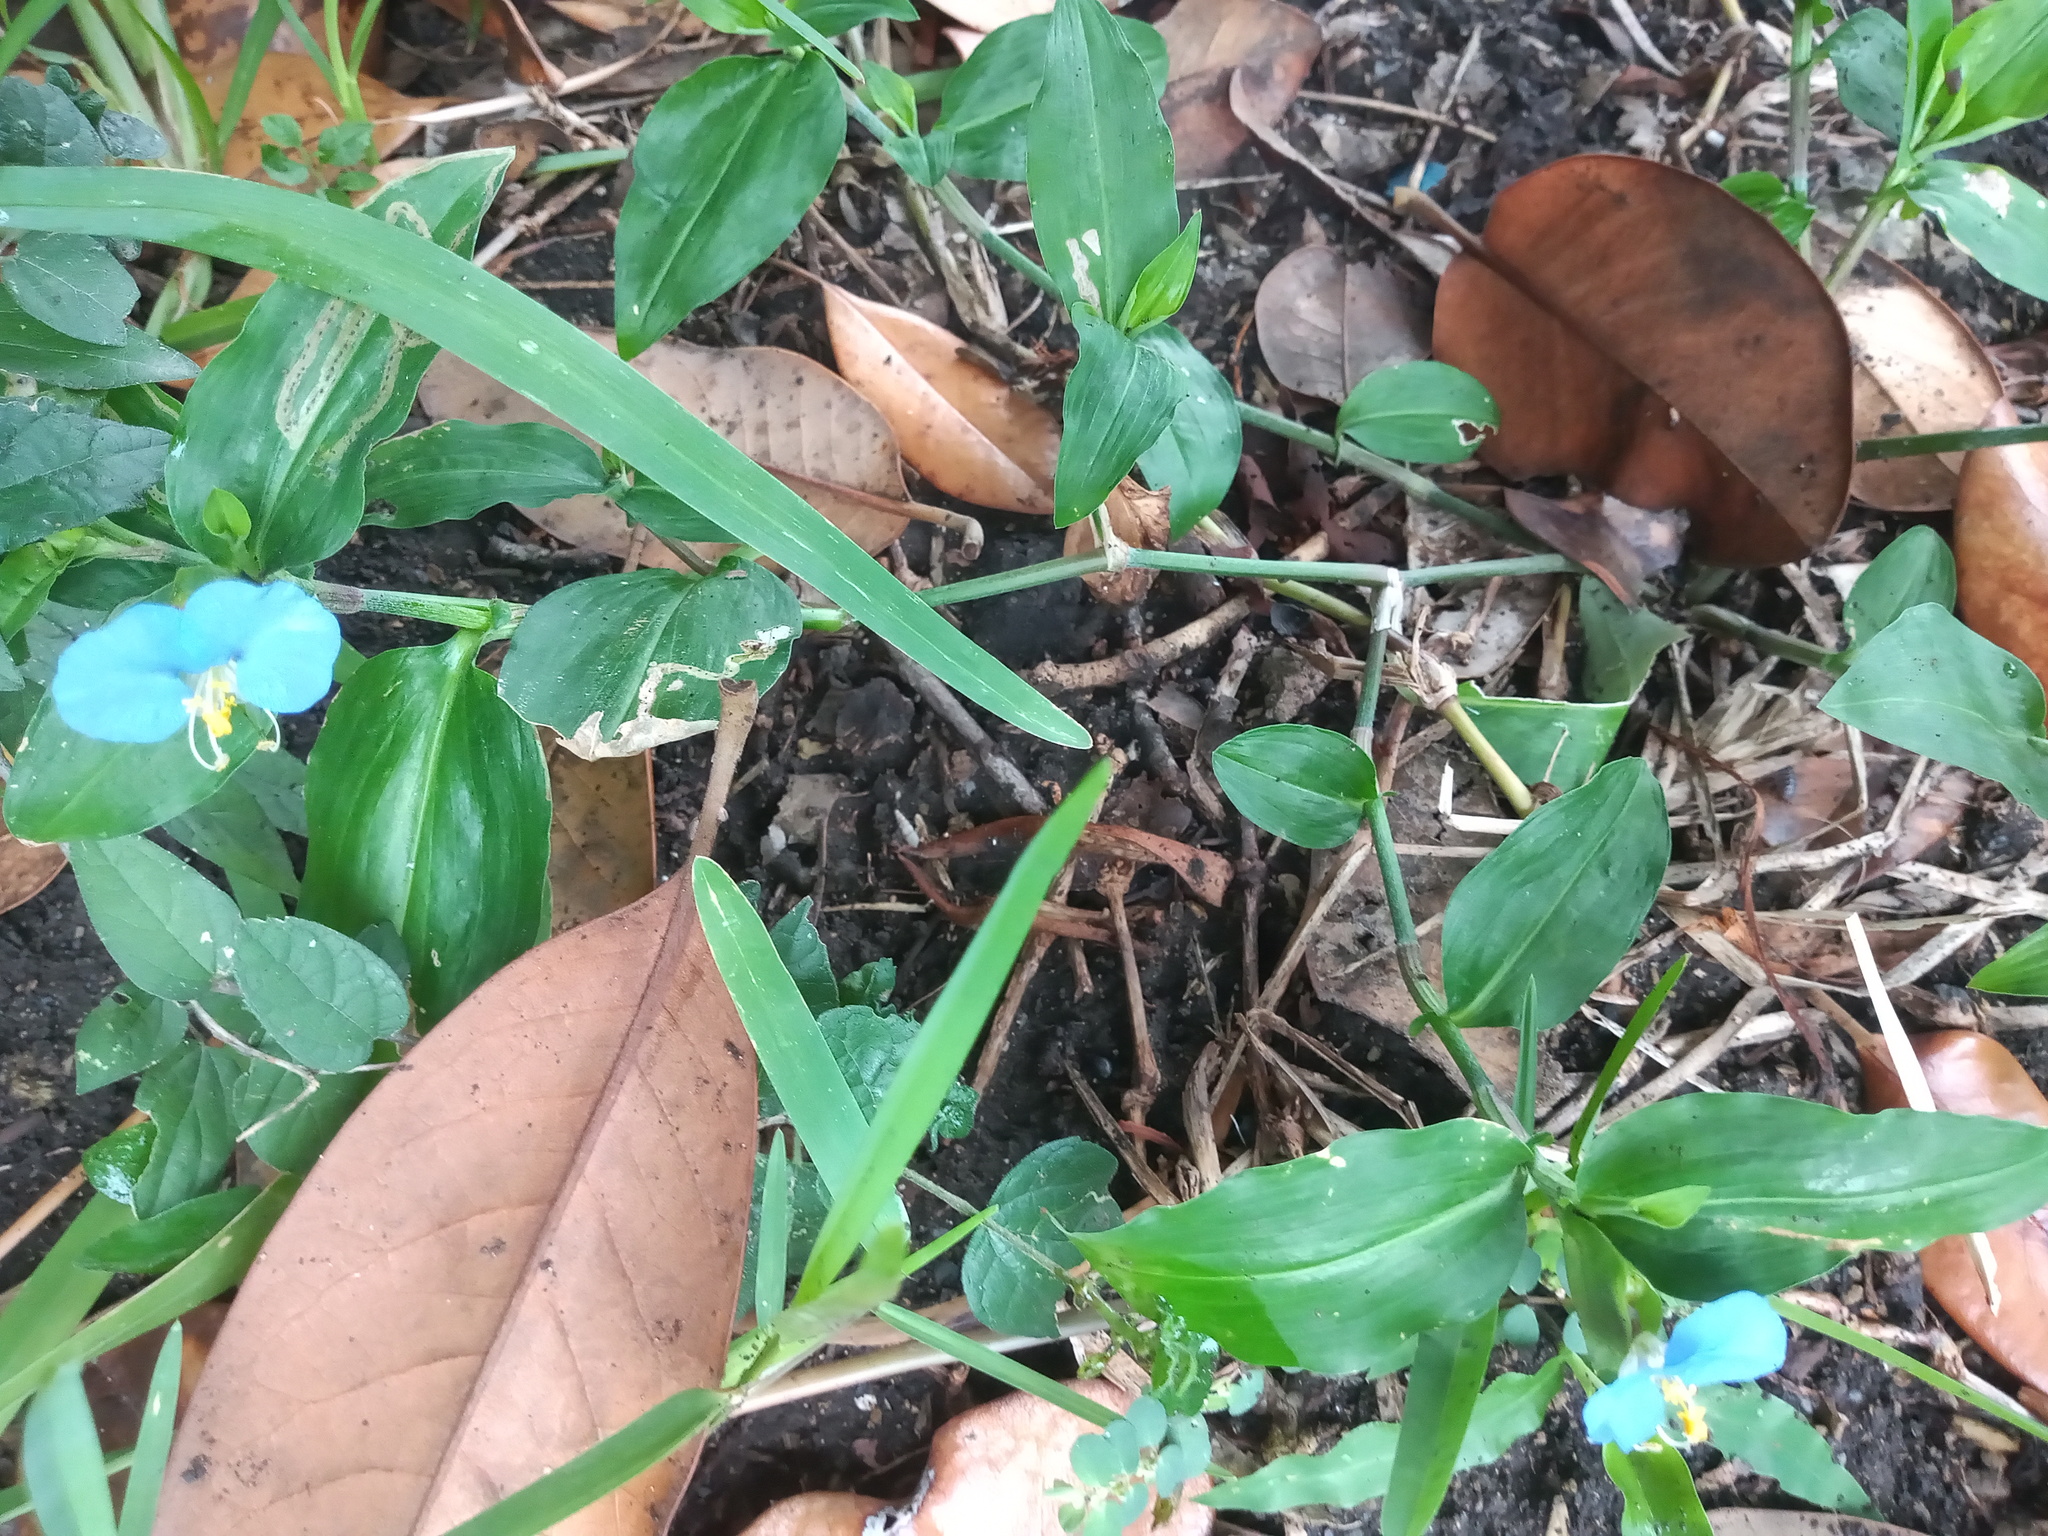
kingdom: Plantae
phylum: Tracheophyta
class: Liliopsida
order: Commelinales
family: Commelinaceae
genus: Commelina
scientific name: Commelina erecta
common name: Blousel blommetjie
